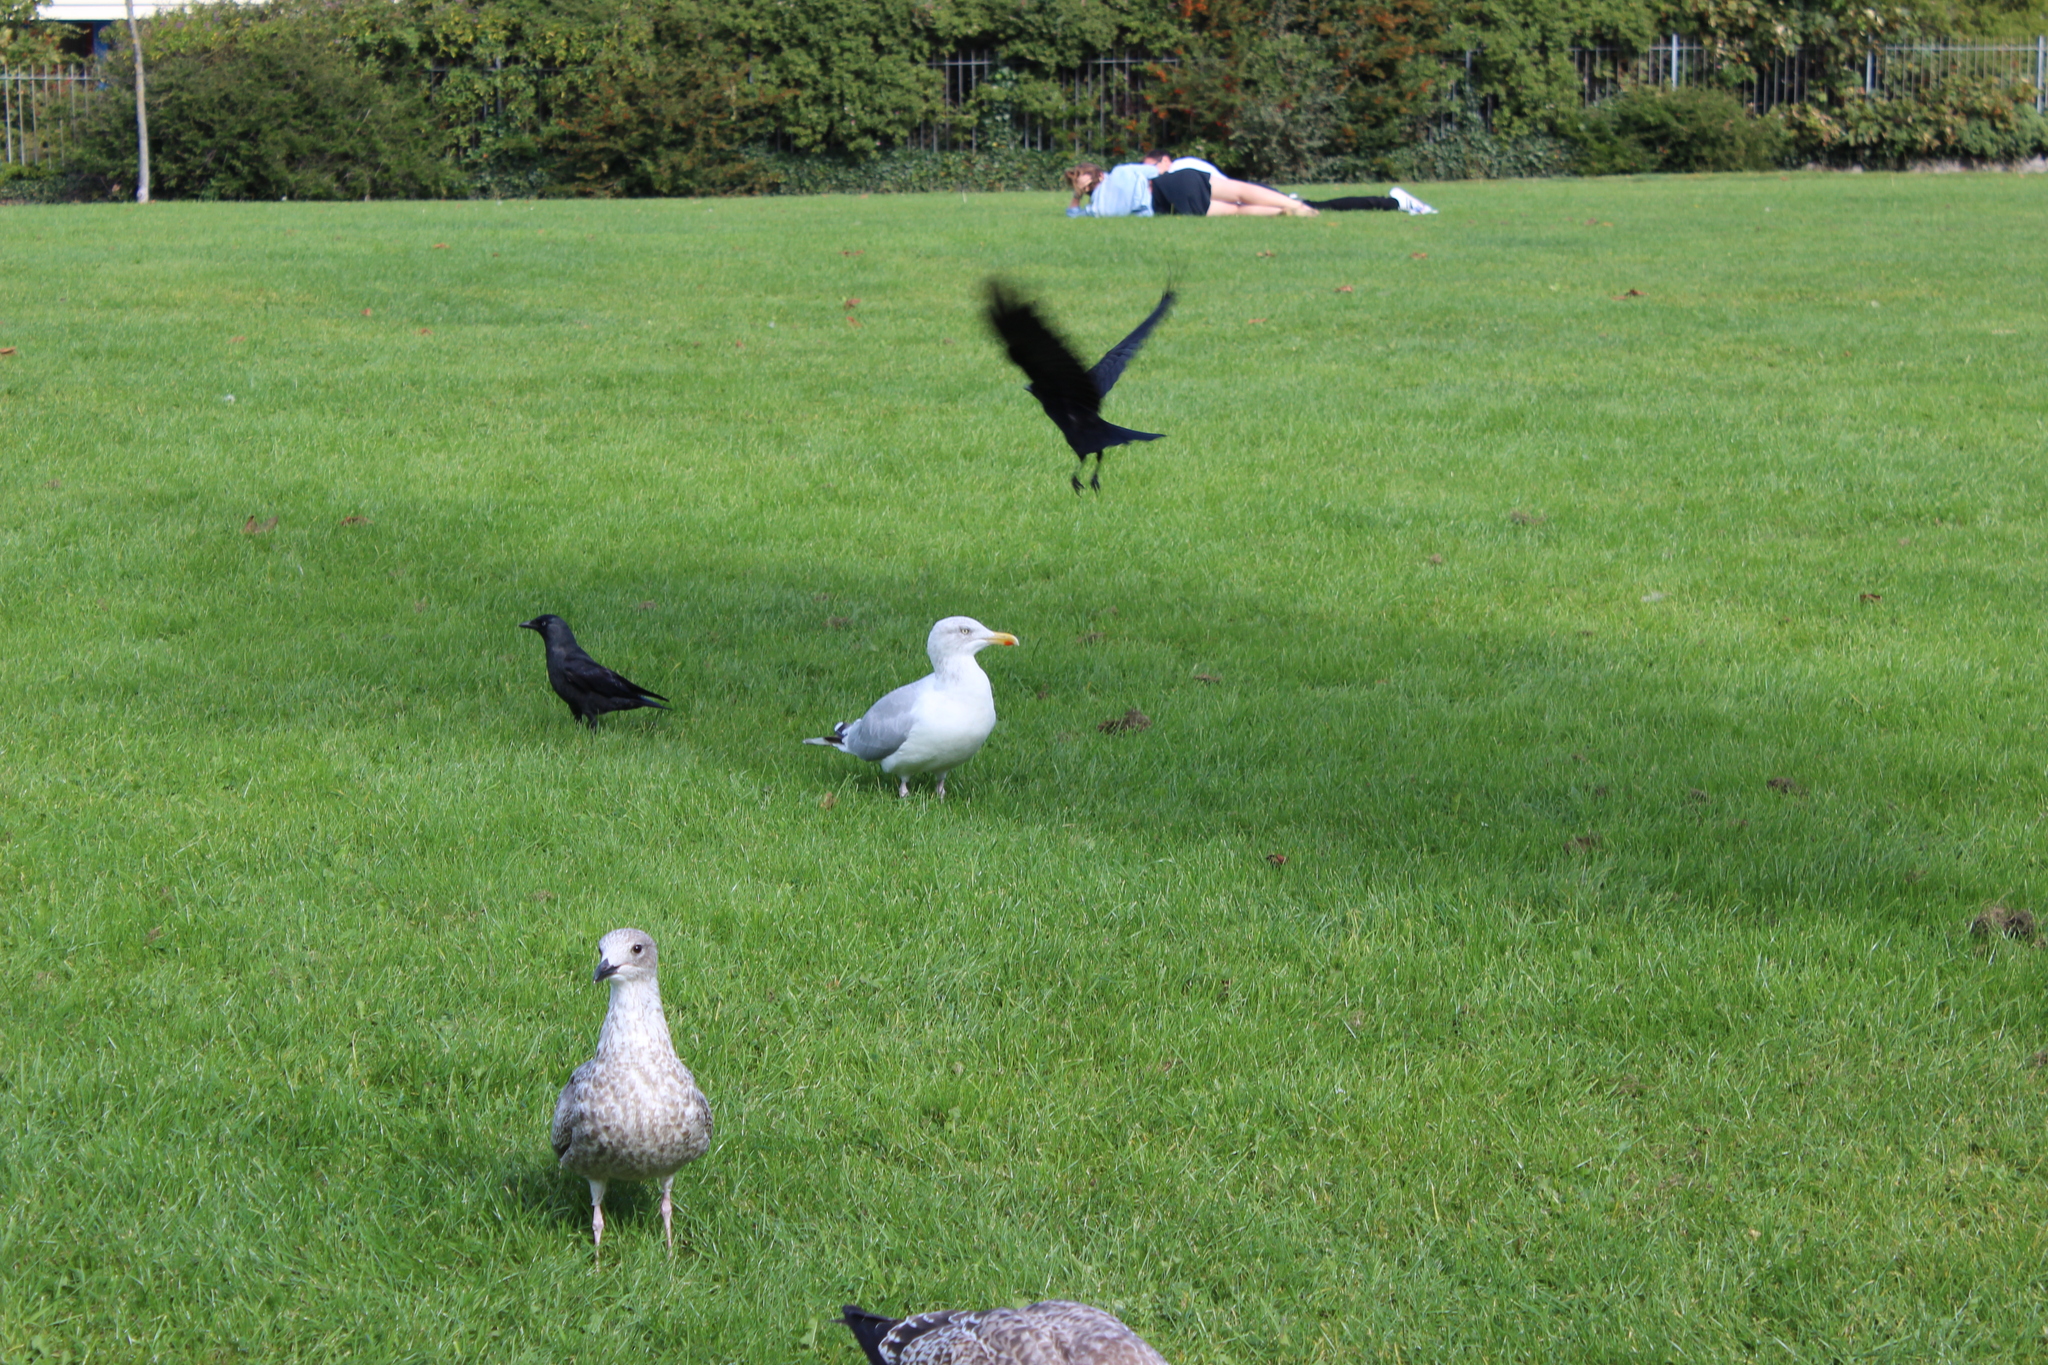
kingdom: Animalia
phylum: Chordata
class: Aves
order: Passeriformes
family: Corvidae
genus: Coloeus
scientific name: Coloeus monedula
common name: Western jackdaw
